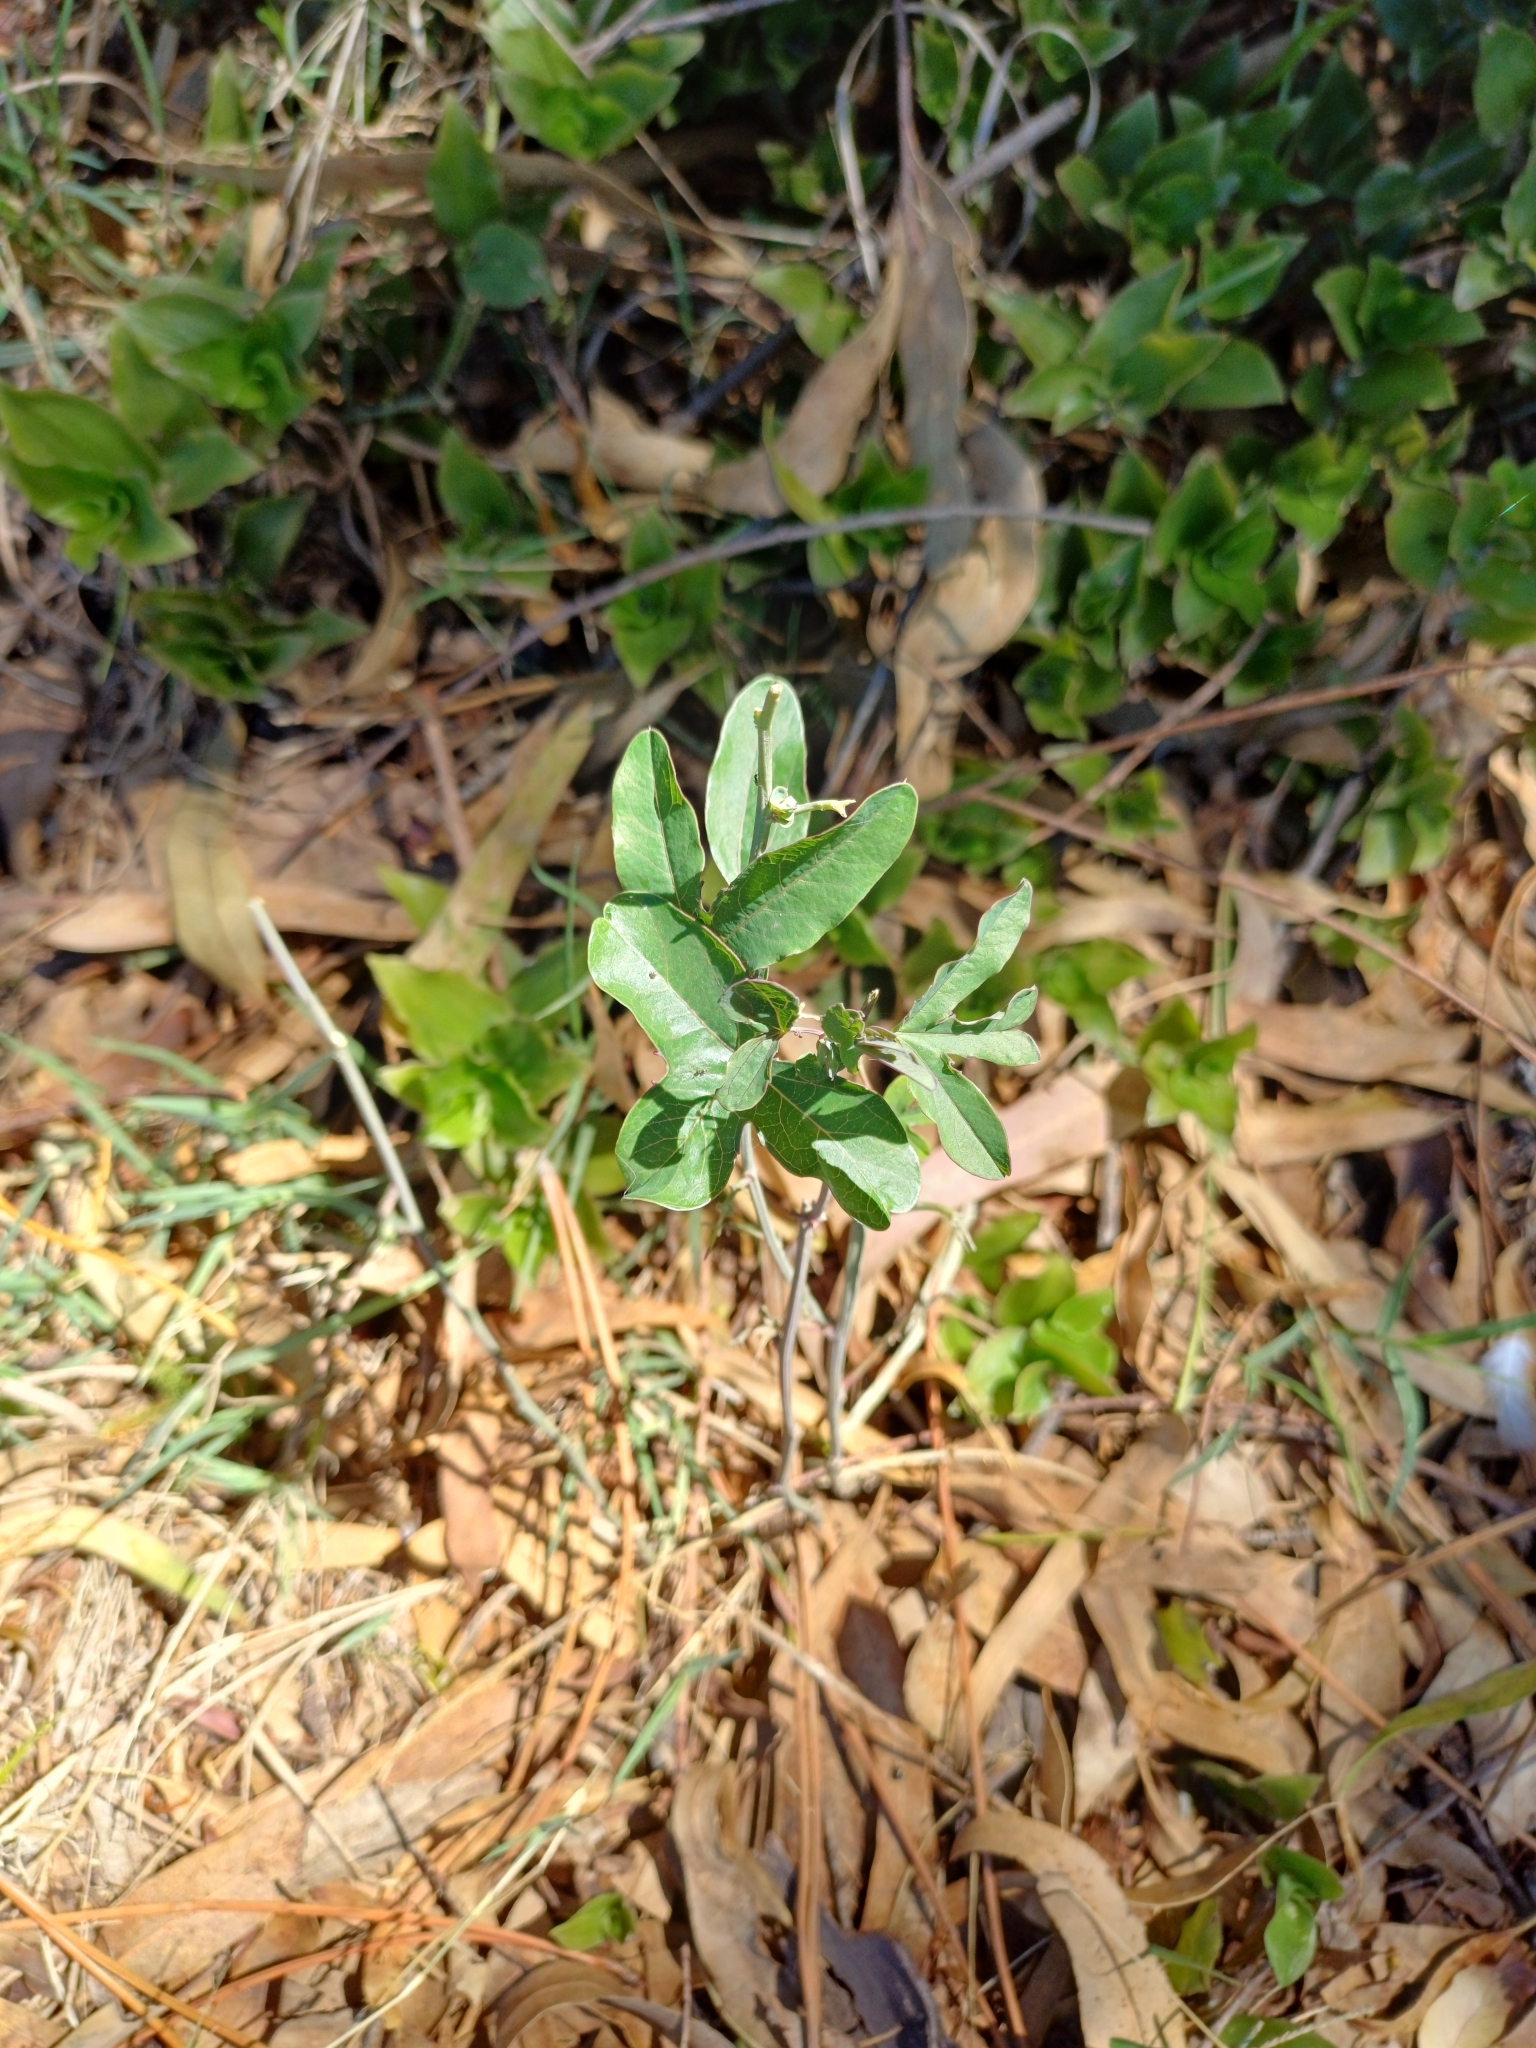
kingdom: Plantae
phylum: Tracheophyta
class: Magnoliopsida
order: Malpighiales
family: Passifloraceae
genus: Passiflora
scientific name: Passiflora caerulea
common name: Blue passionflower
